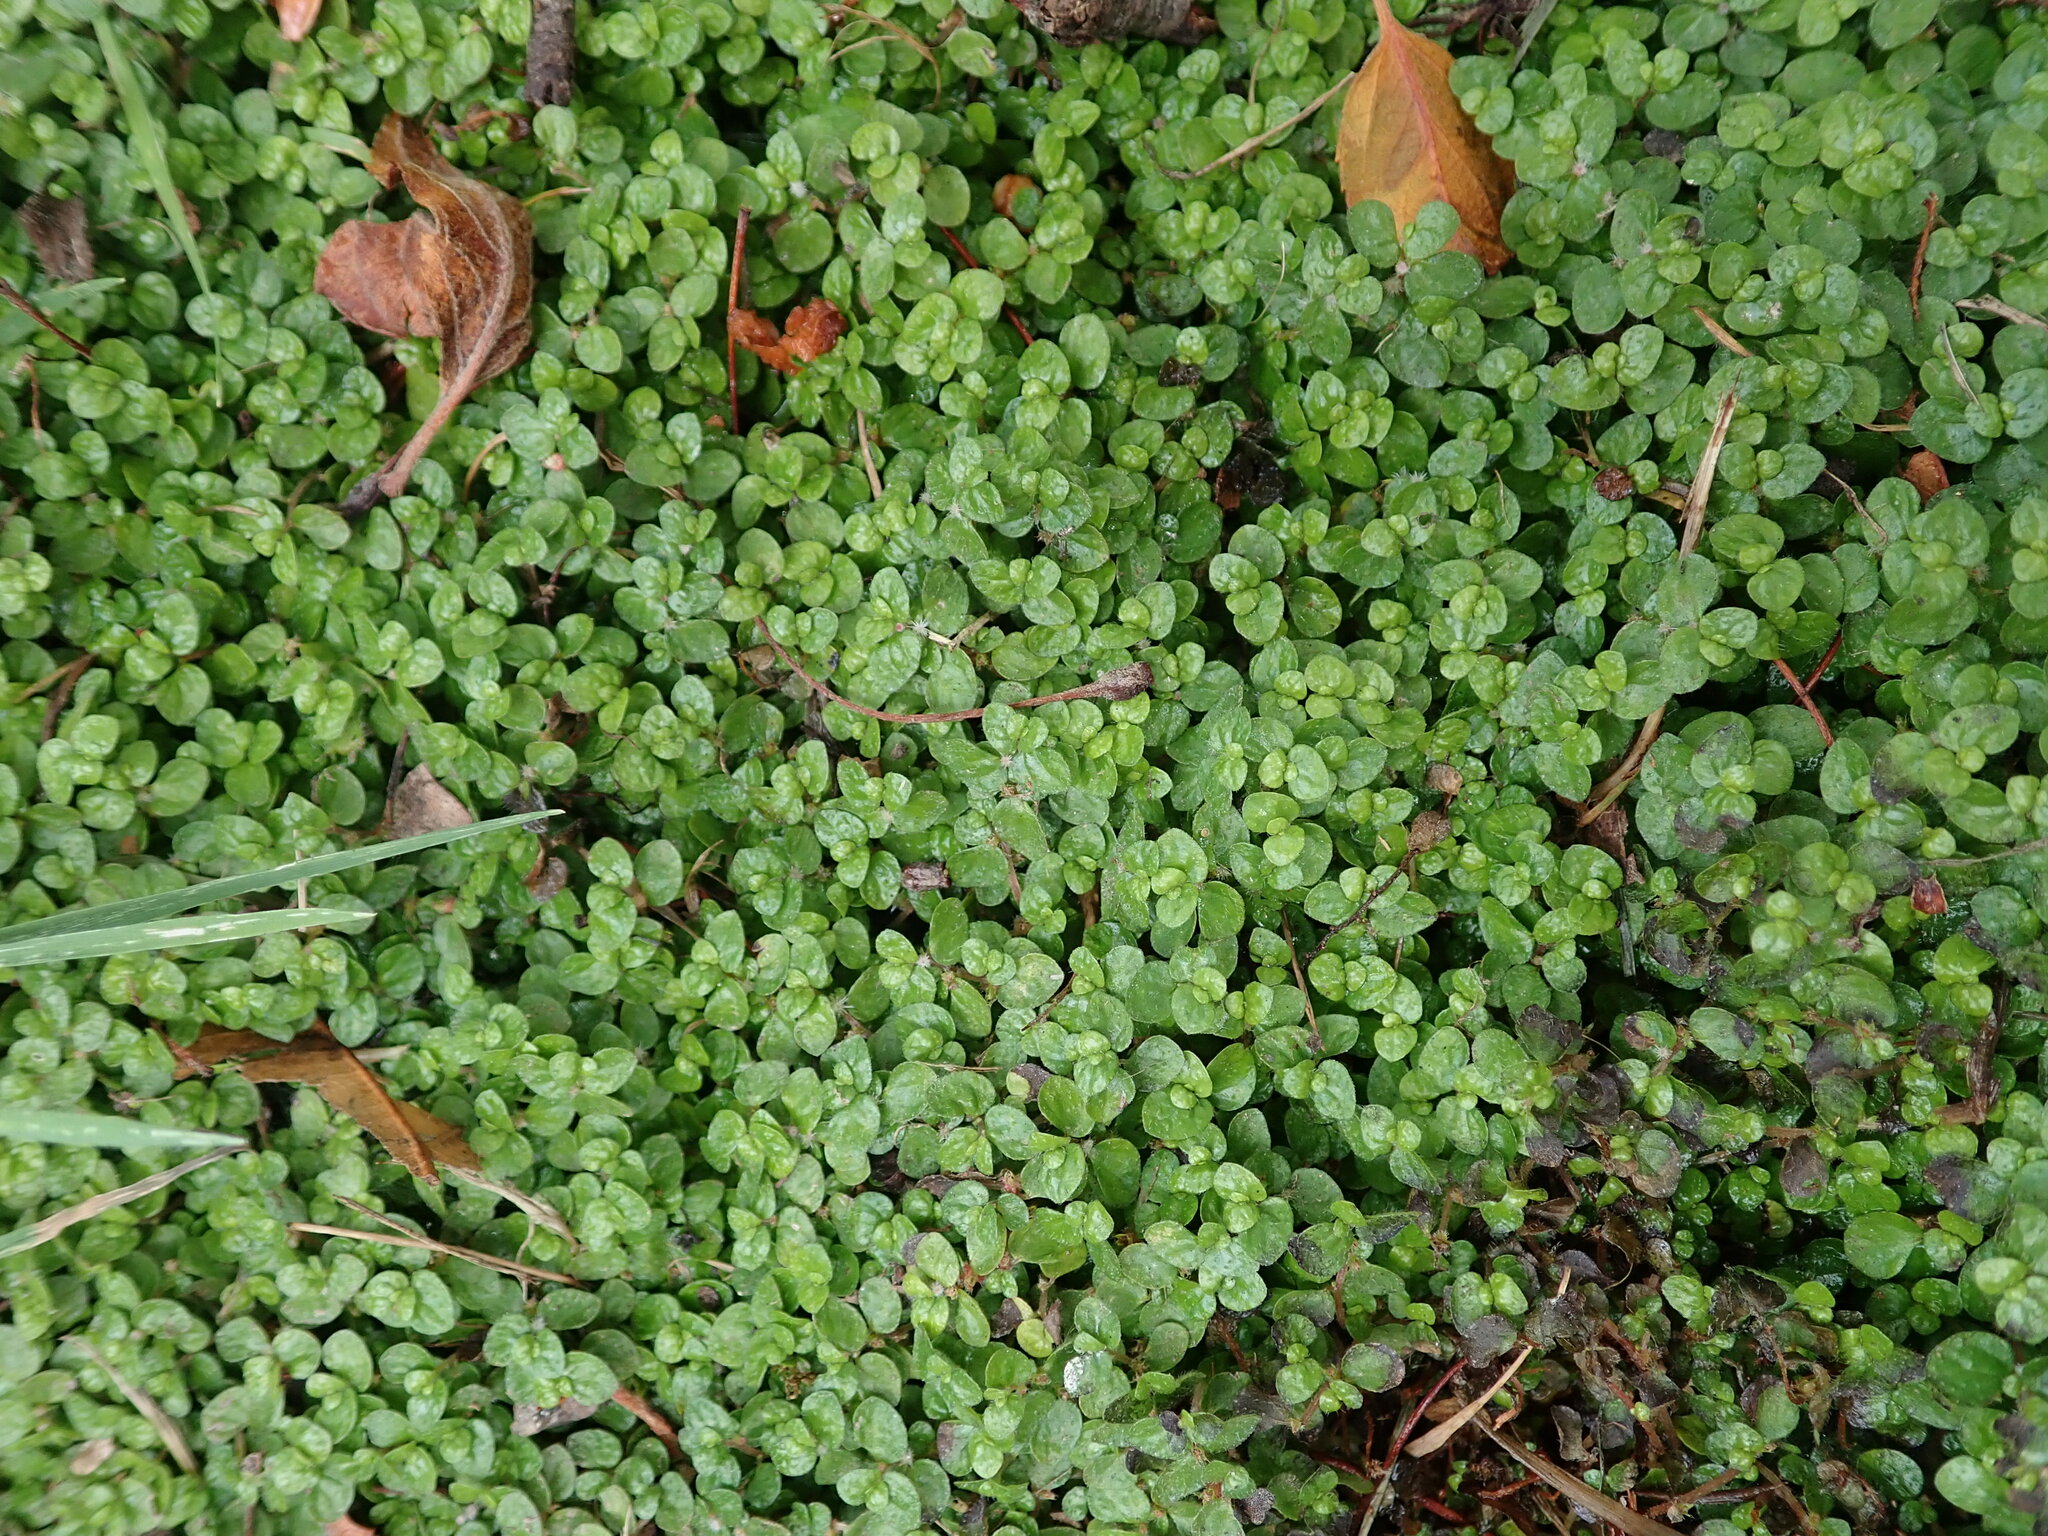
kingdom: Plantae
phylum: Tracheophyta
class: Magnoliopsida
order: Rosales
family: Urticaceae
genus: Soleirolia
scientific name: Soleirolia soleirolii
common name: Mind-your-own-business
